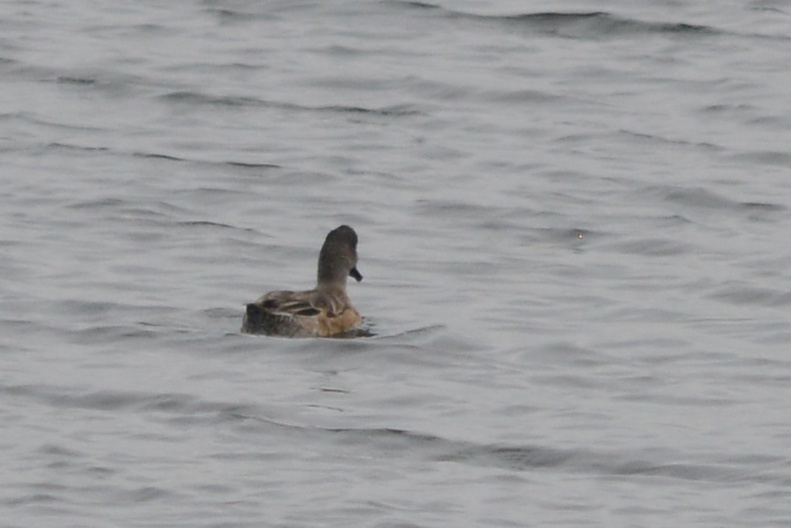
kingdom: Animalia
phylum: Chordata
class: Aves
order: Anseriformes
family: Anatidae
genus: Mareca
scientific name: Mareca americana
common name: American wigeon
